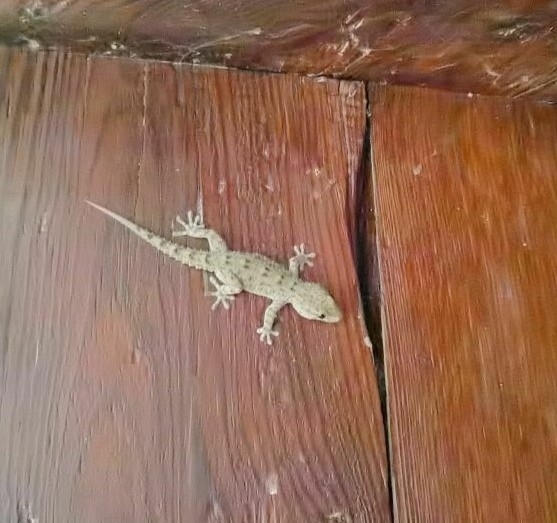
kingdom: Animalia
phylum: Chordata
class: Squamata
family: Phyllodactylidae
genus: Tarentola
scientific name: Tarentola delalandii
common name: Tenerife wall gecko
